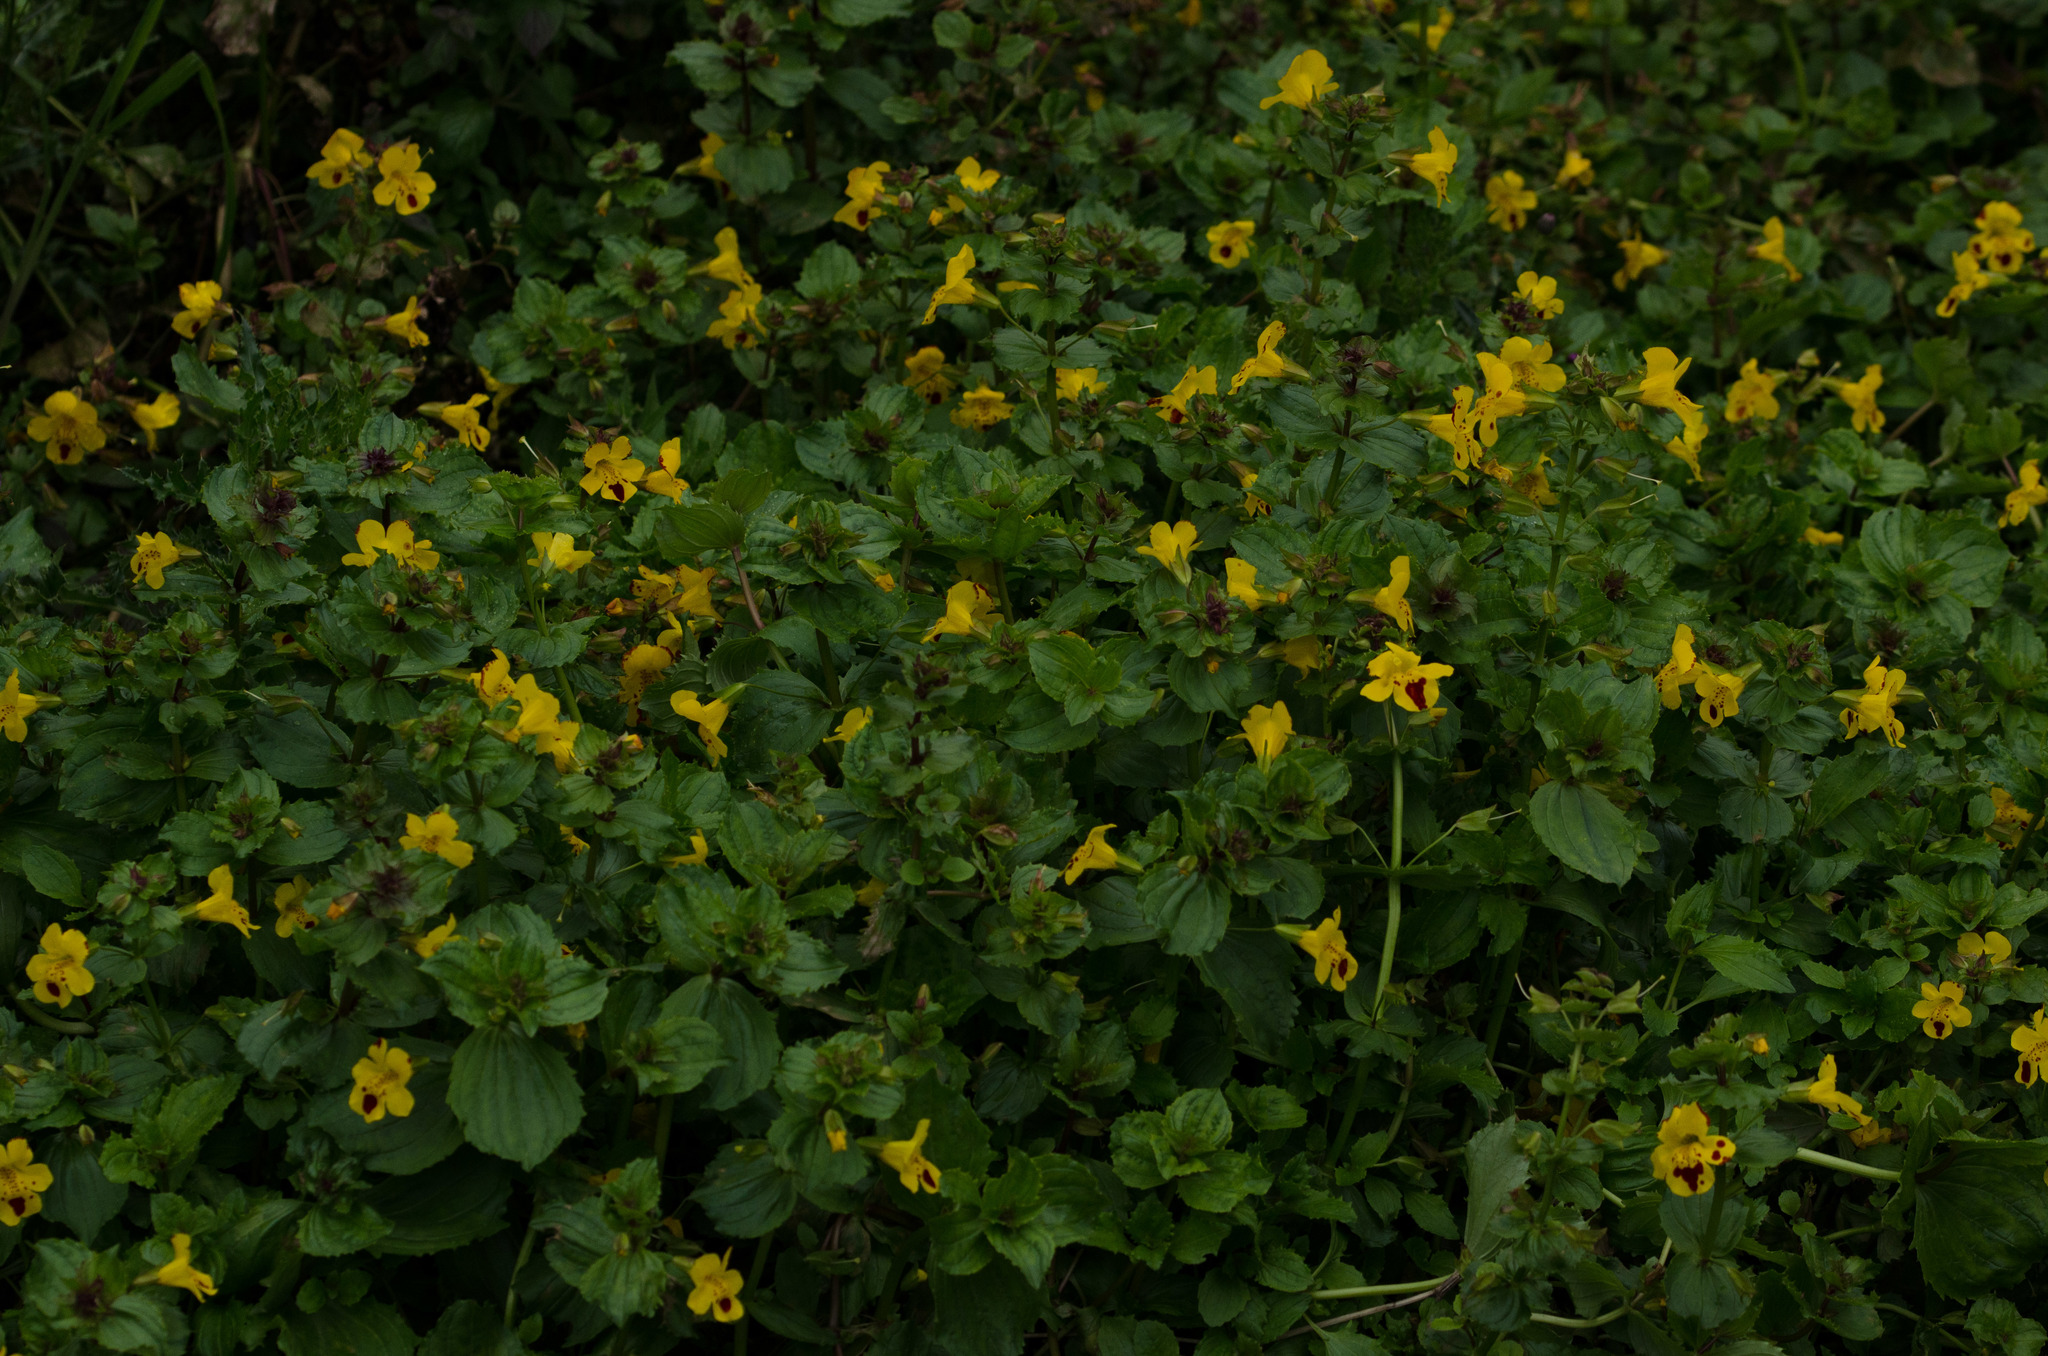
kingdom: Plantae
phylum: Tracheophyta
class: Magnoliopsida
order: Lamiales
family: Phrymaceae
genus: Erythranthe
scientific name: Erythranthe robertsii
